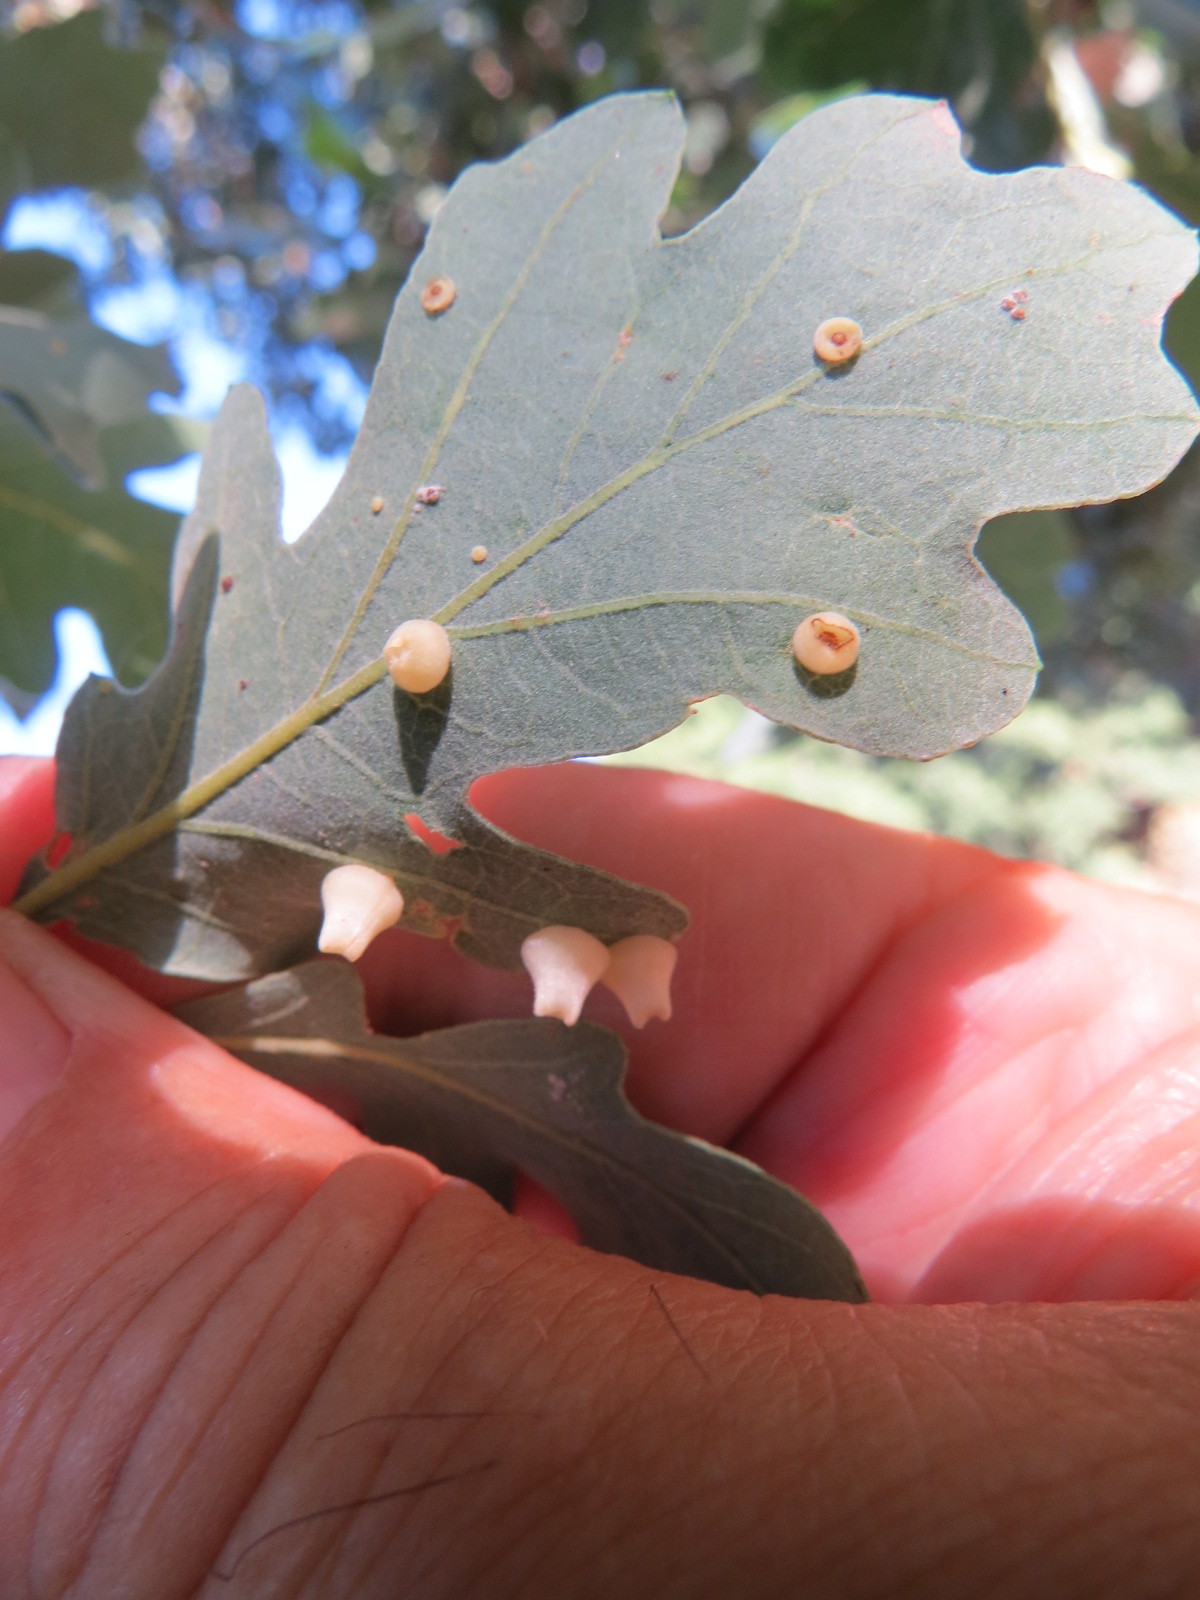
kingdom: Animalia
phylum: Arthropoda
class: Insecta
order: Hymenoptera
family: Cynipidae
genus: Andricus
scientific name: Andricus
